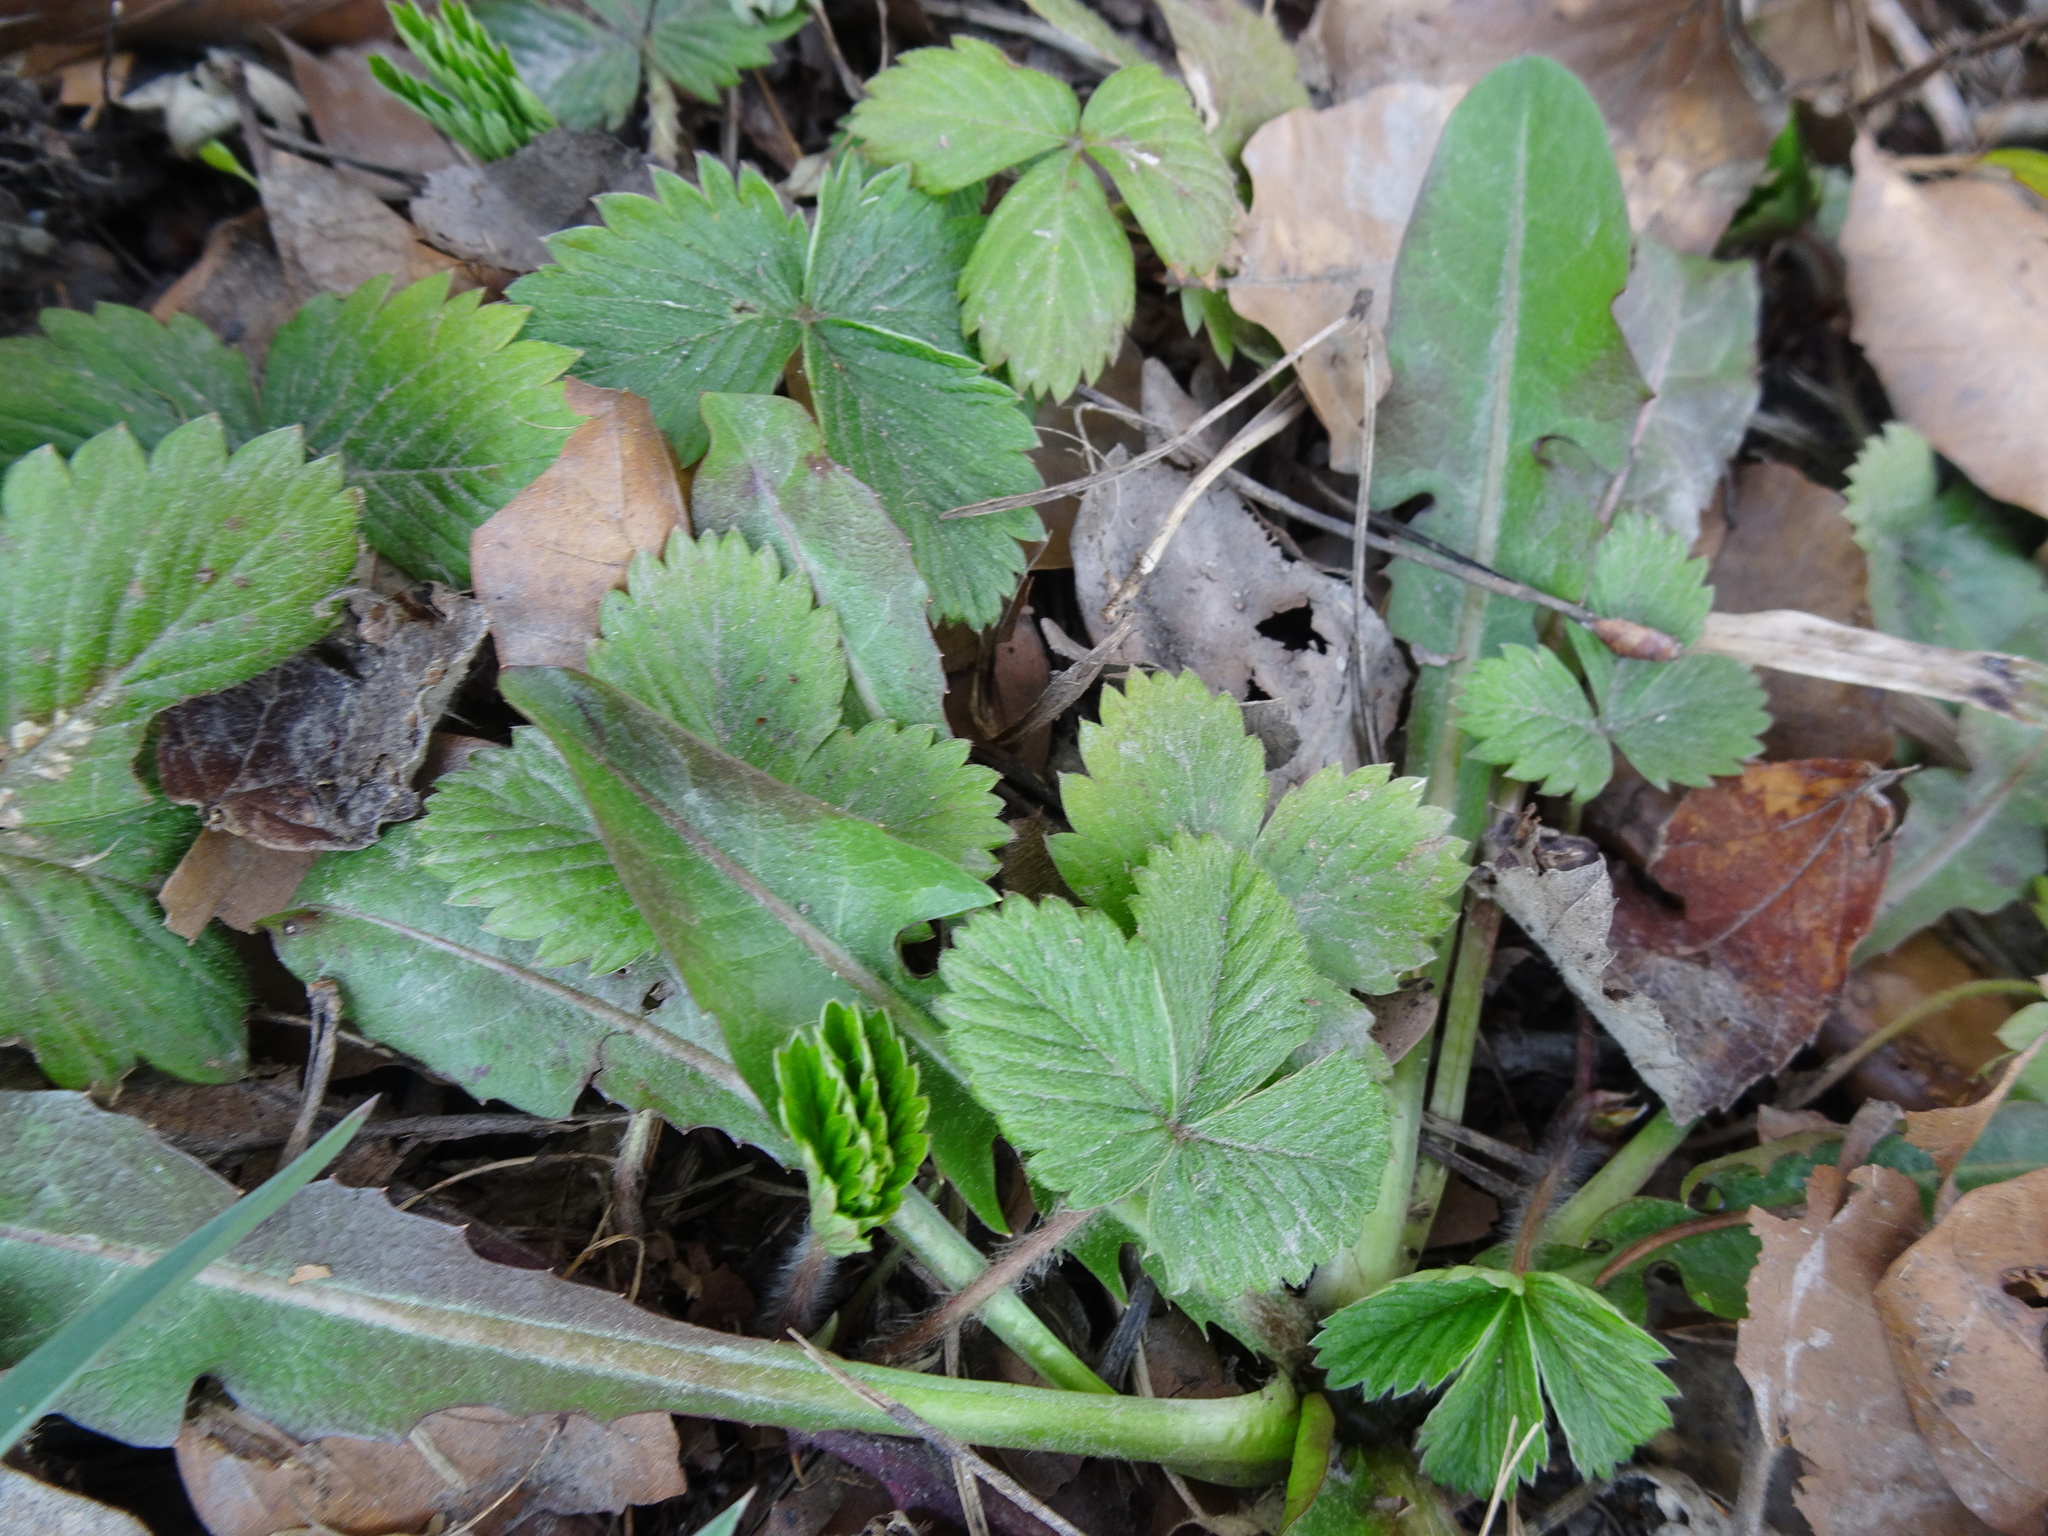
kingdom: Plantae
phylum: Tracheophyta
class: Magnoliopsida
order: Rosales
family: Rosaceae
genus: Fragaria
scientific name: Fragaria vesca
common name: Wild strawberry
